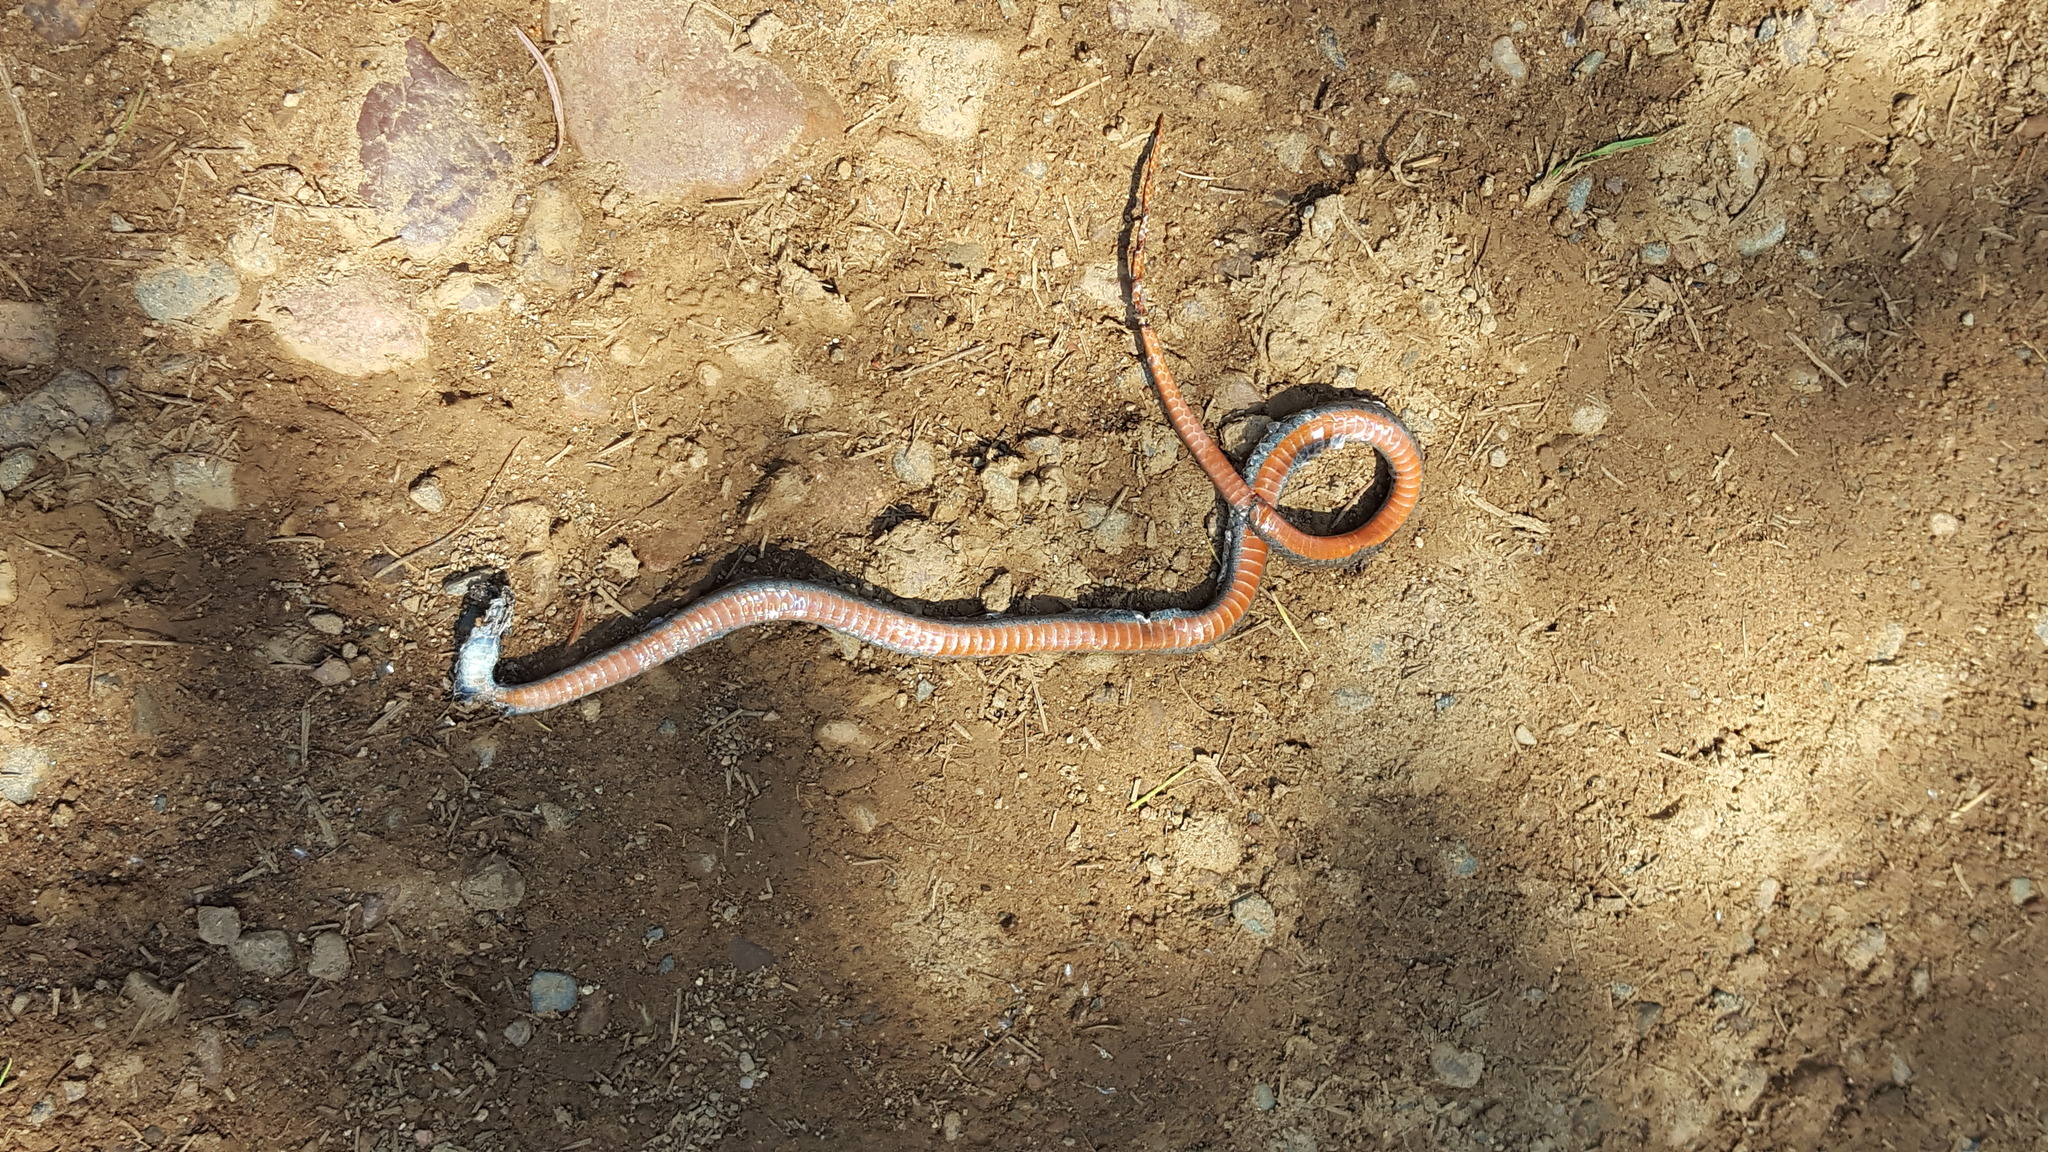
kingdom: Animalia
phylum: Chordata
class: Squamata
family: Colubridae
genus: Storeria
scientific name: Storeria occipitomaculata
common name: Redbelly snake
